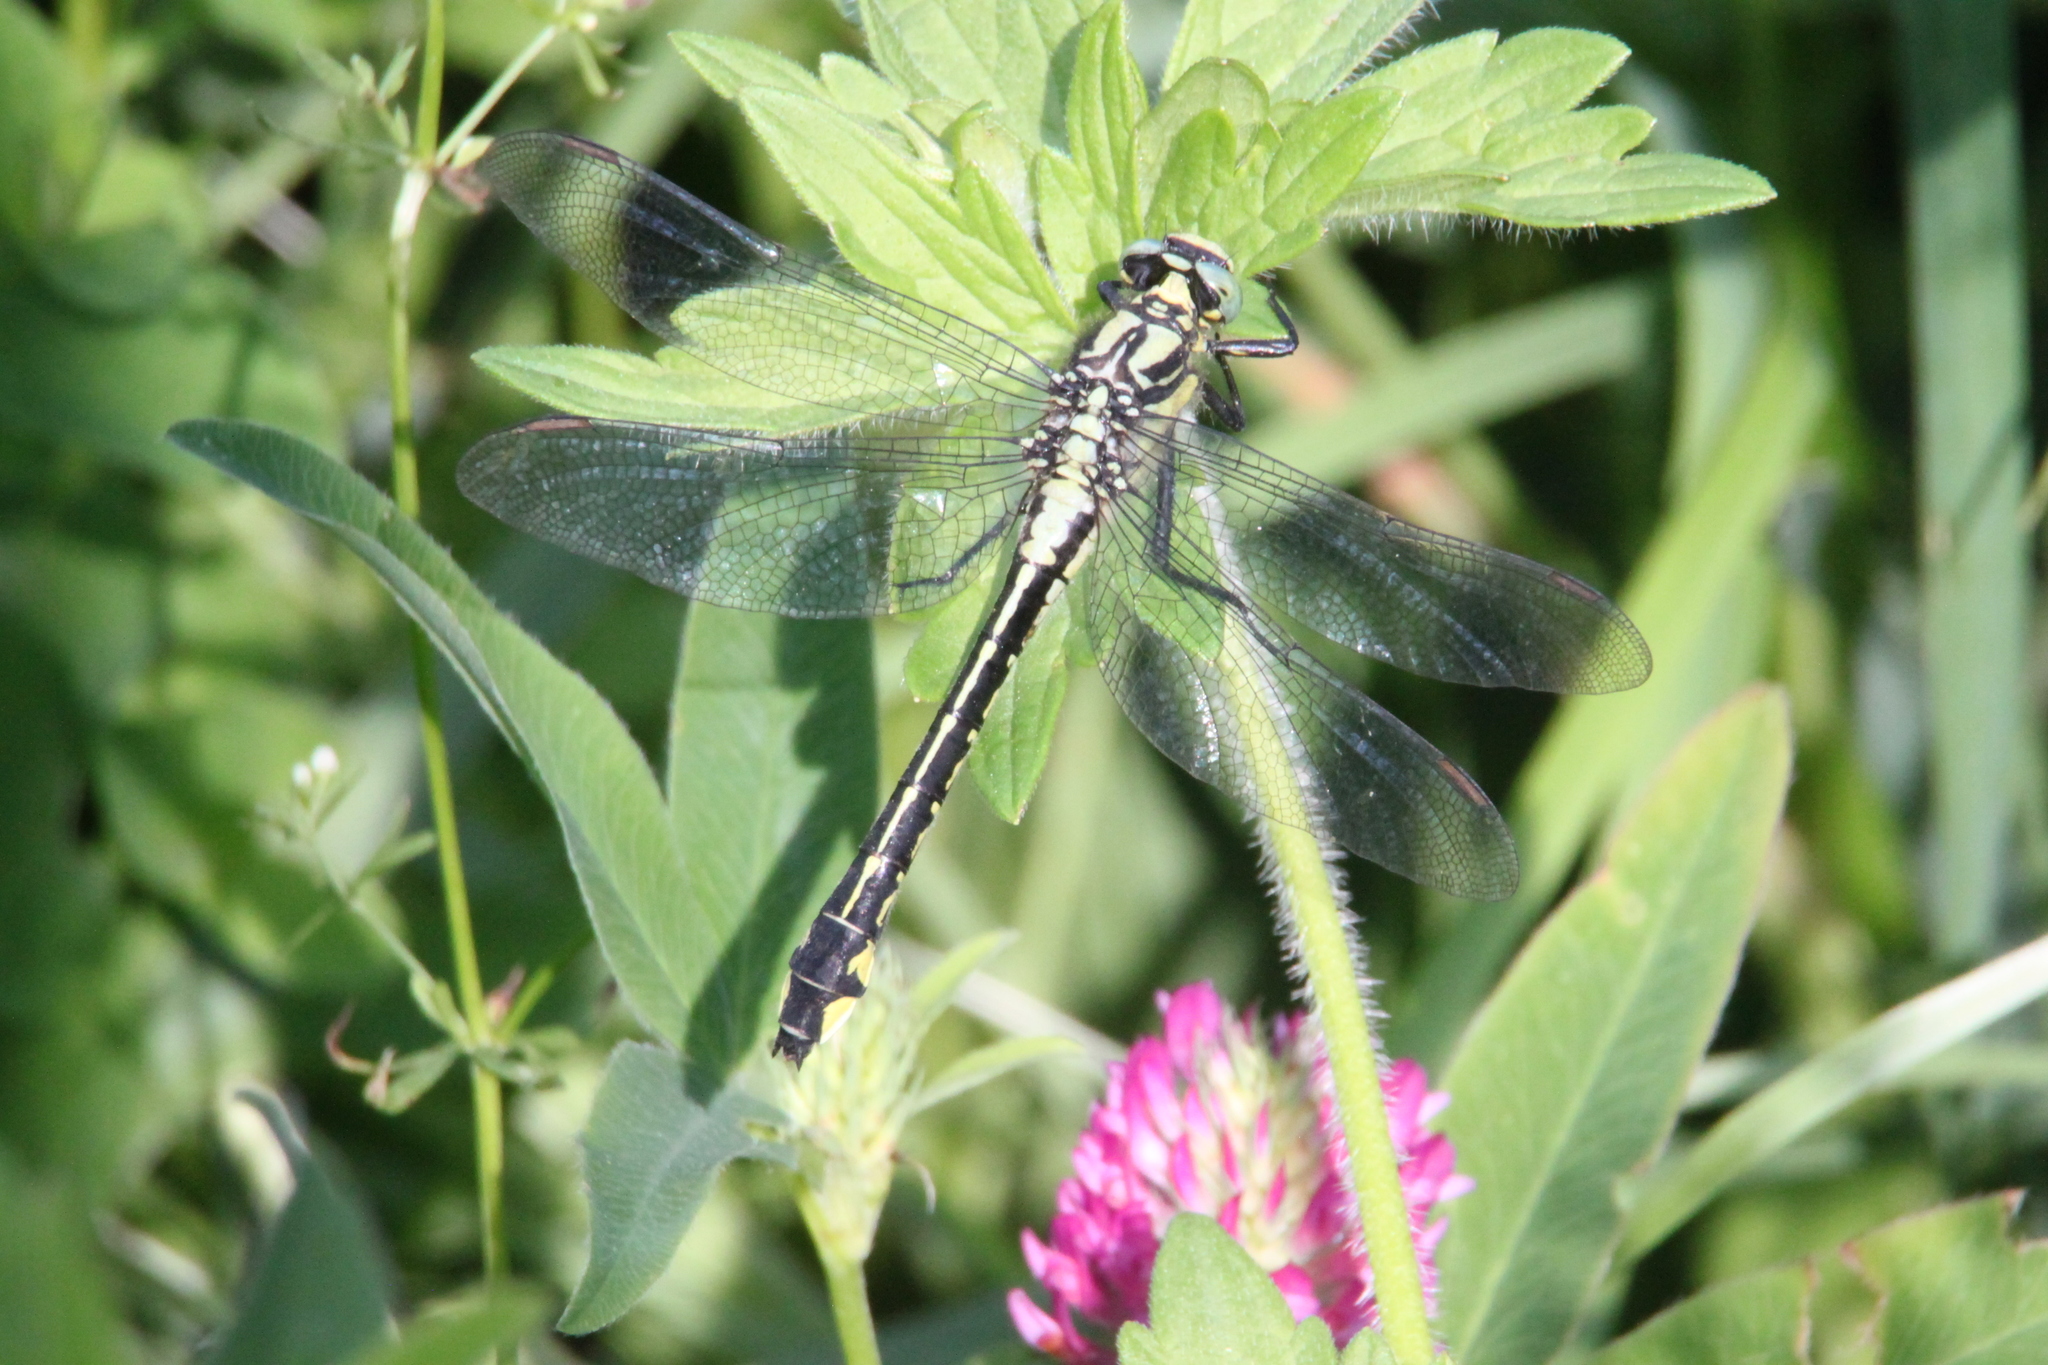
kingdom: Animalia
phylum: Arthropoda
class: Insecta
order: Odonata
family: Gomphidae
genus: Gomphus
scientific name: Gomphus vulgatissimus
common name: Club-tailed dragonfly
